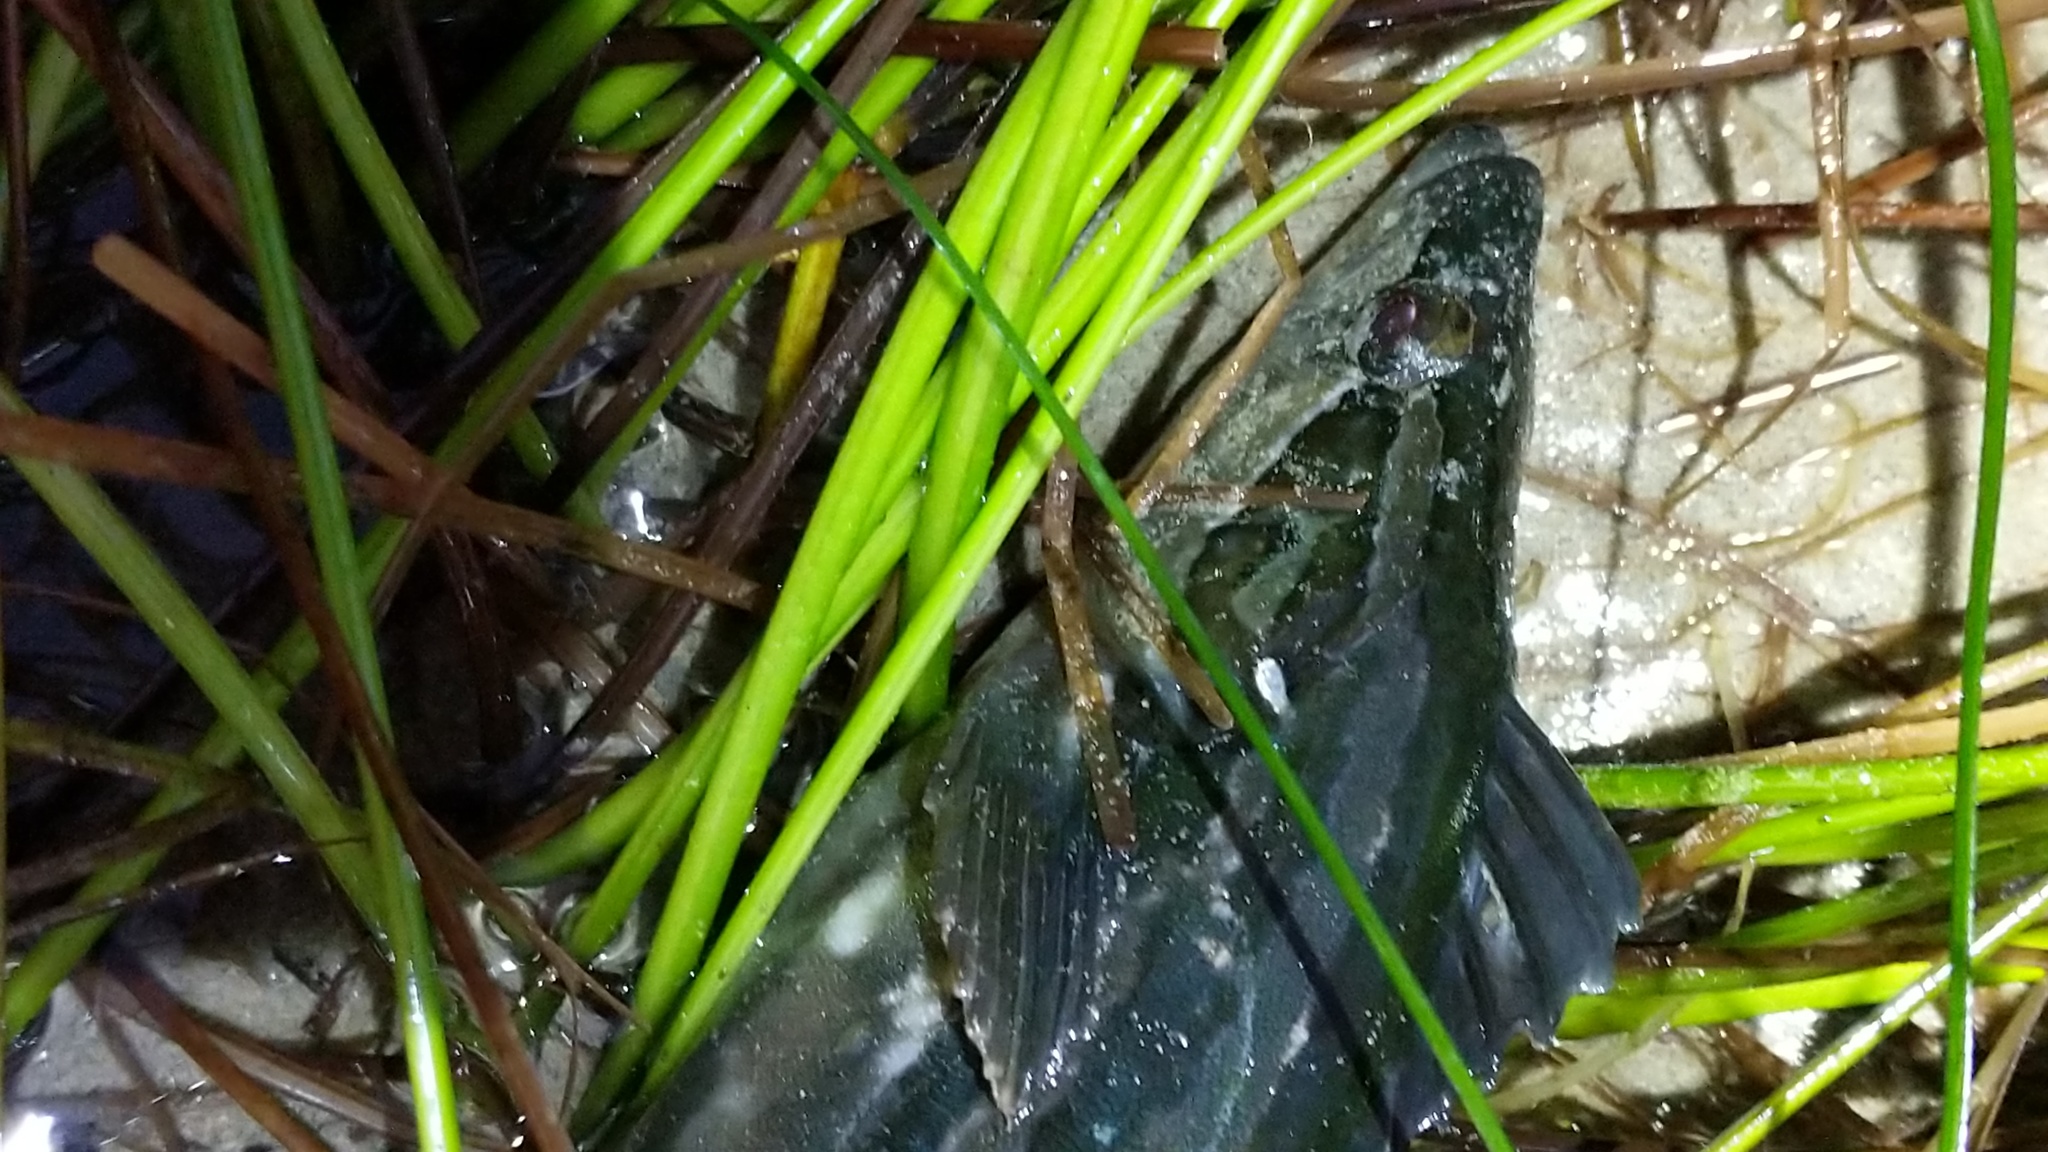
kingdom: Animalia
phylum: Chordata
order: Perciformes
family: Clinidae
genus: Heterostichus
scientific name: Heterostichus rostratus
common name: Giant kelpfish
